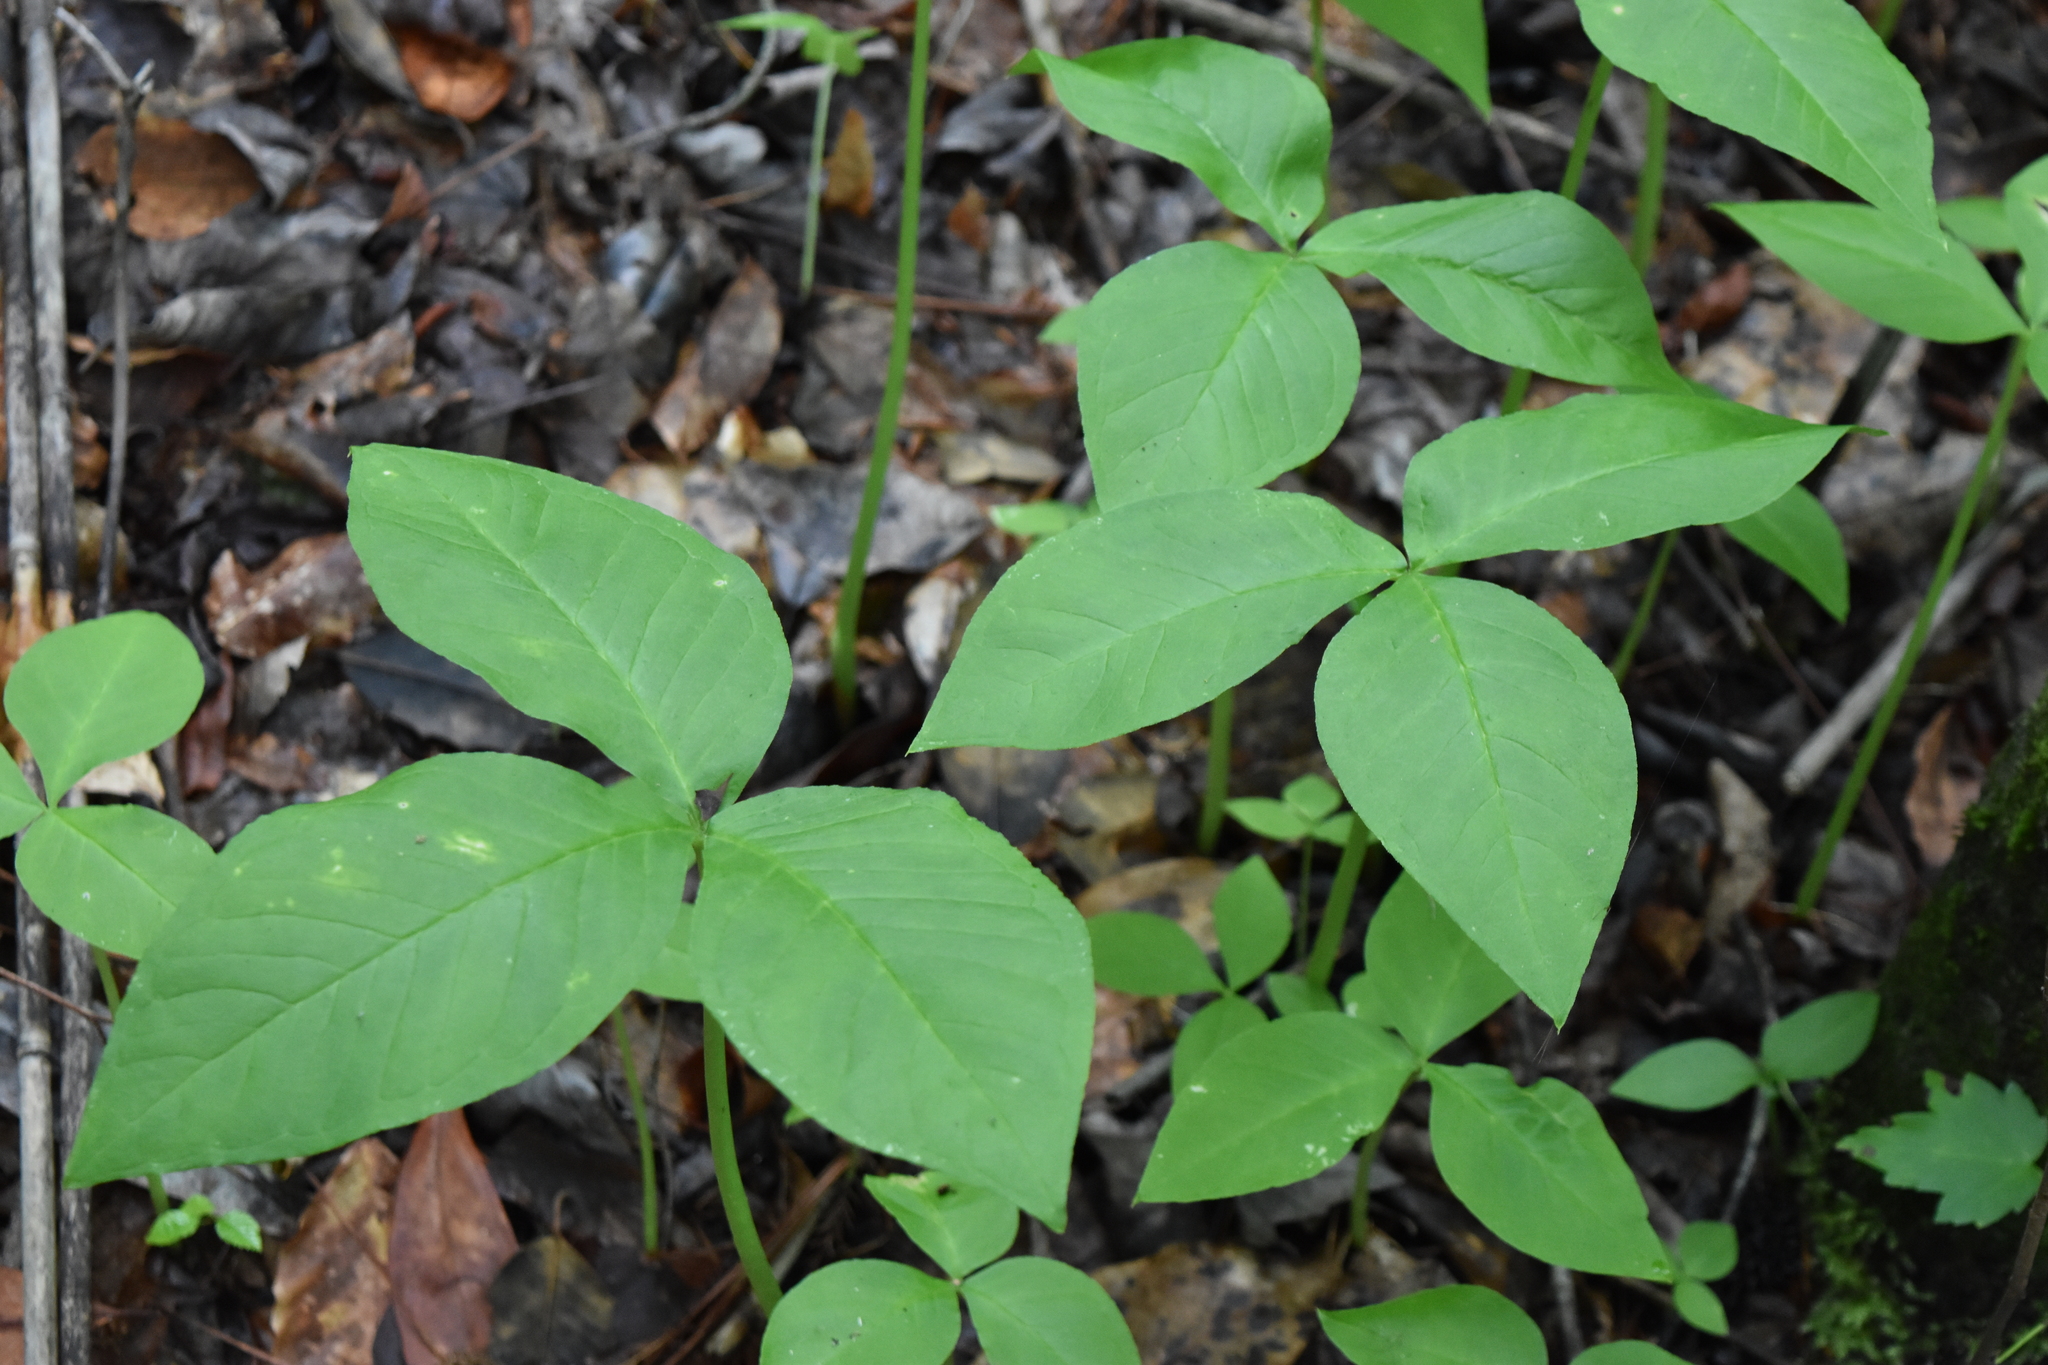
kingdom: Plantae
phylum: Tracheophyta
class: Liliopsida
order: Alismatales
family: Araceae
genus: Arisaema
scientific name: Arisaema triphyllum
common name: Jack-in-the-pulpit
